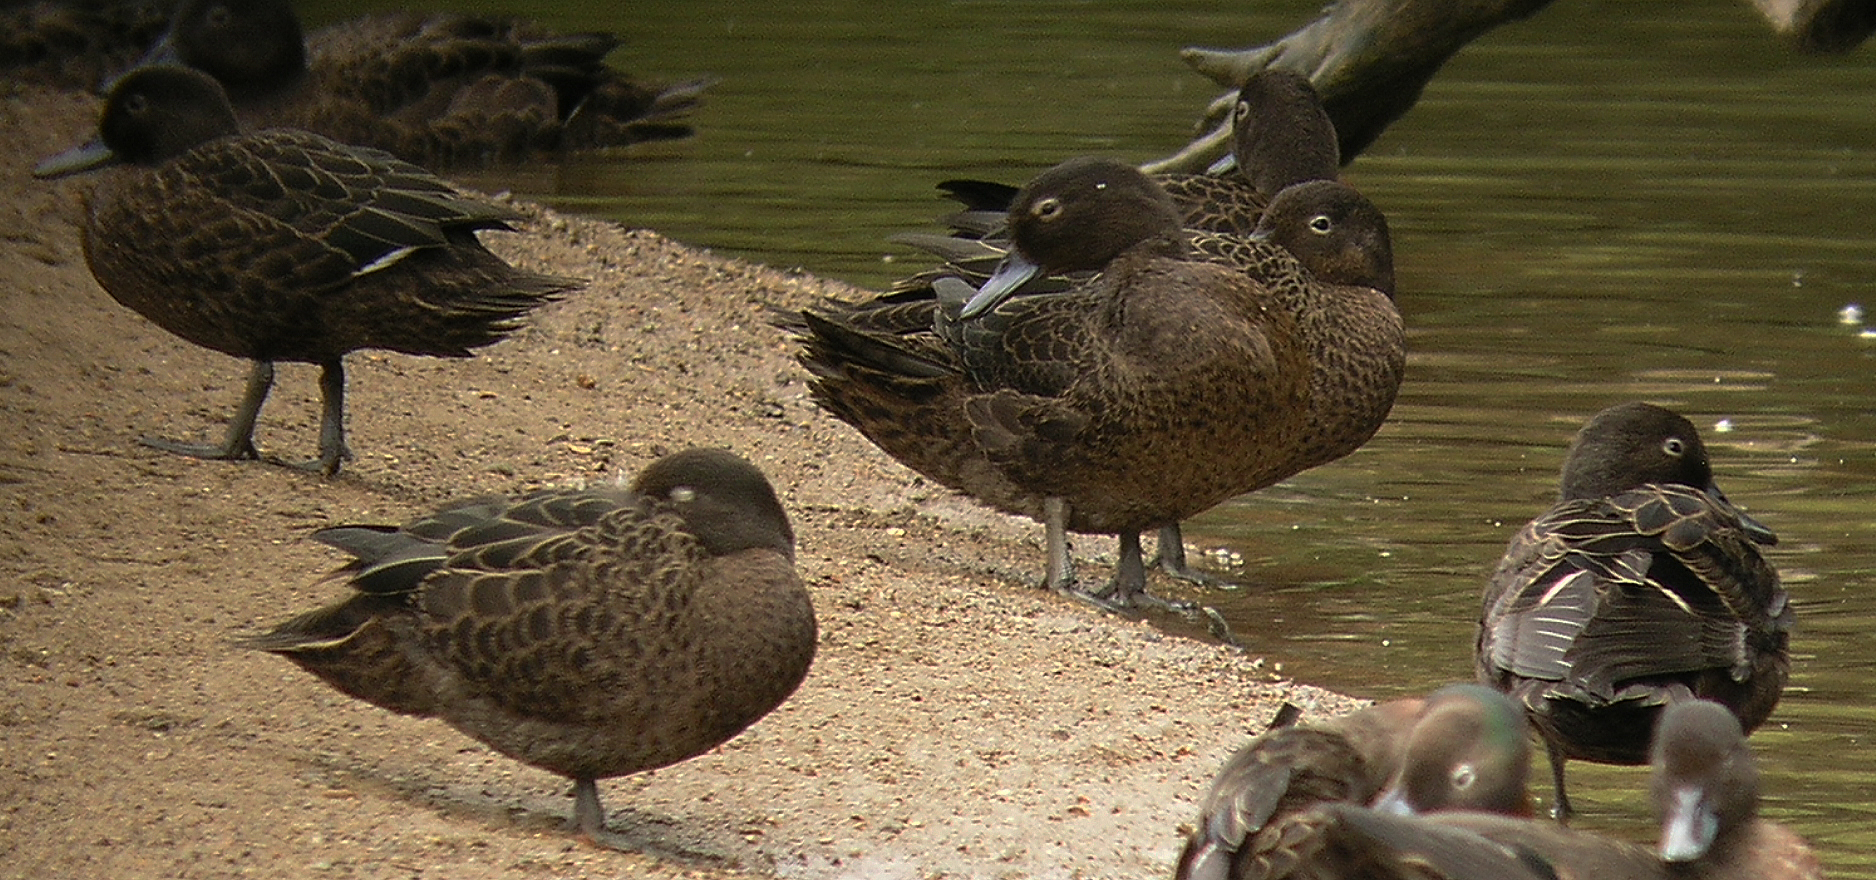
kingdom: Animalia
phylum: Chordata
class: Aves
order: Anseriformes
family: Anatidae
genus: Anas
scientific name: Anas chlorotis
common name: Brown teal
